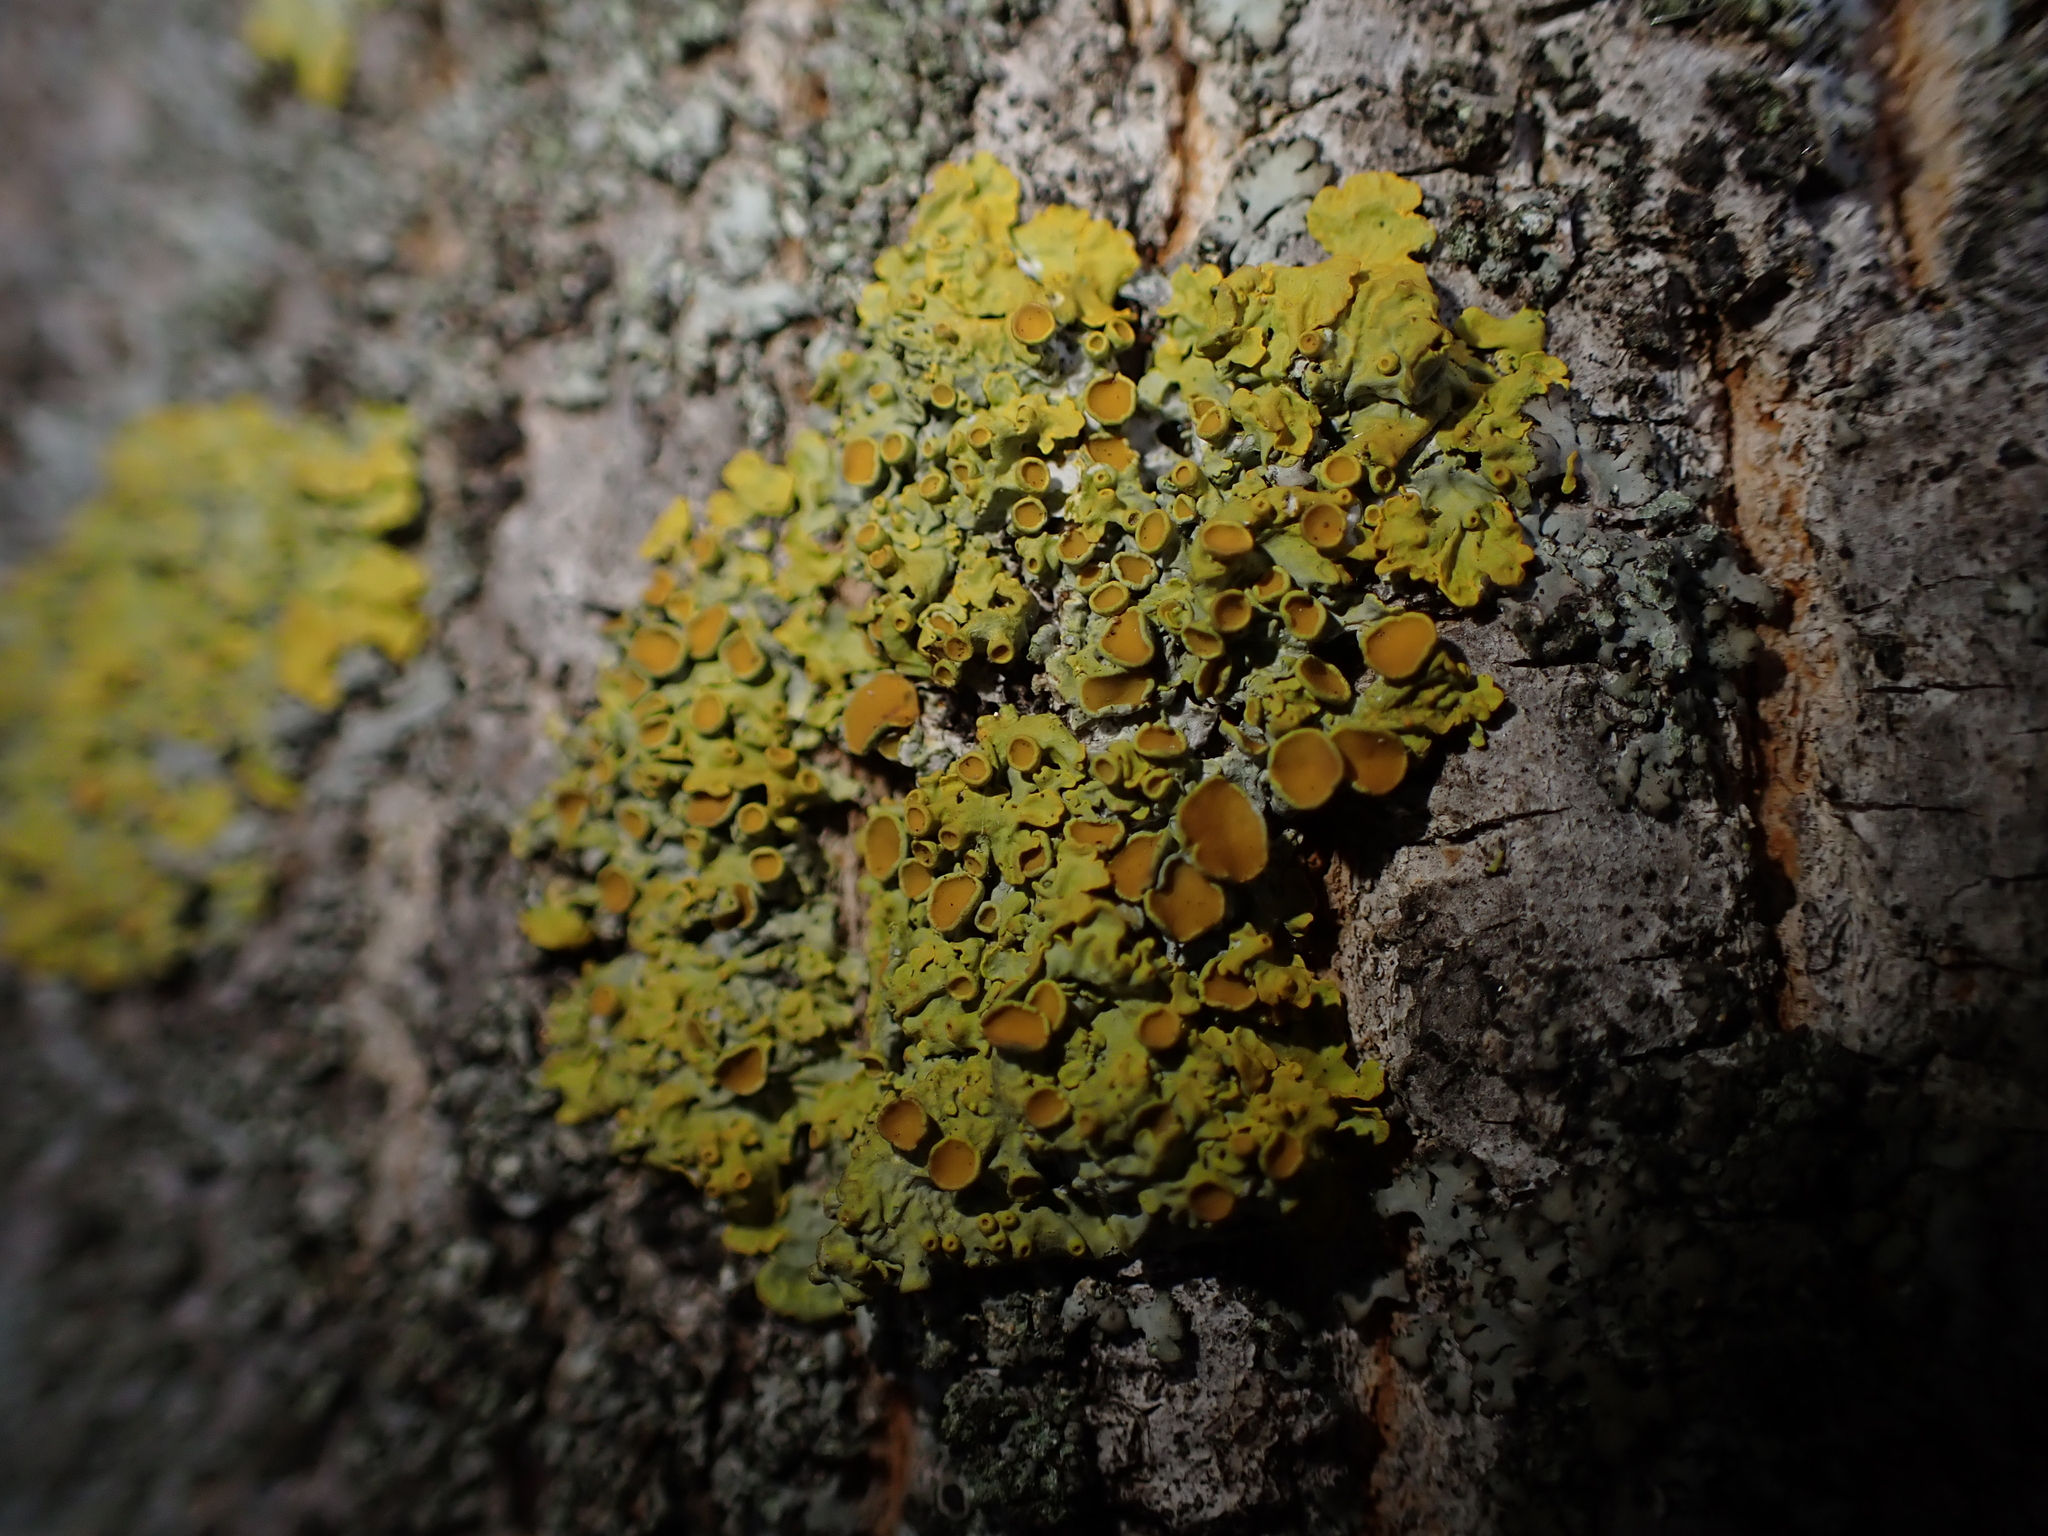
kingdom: Fungi
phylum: Ascomycota
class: Lecanoromycetes
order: Teloschistales
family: Teloschistaceae
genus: Xanthoria
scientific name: Xanthoria parietina
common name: Common orange lichen
